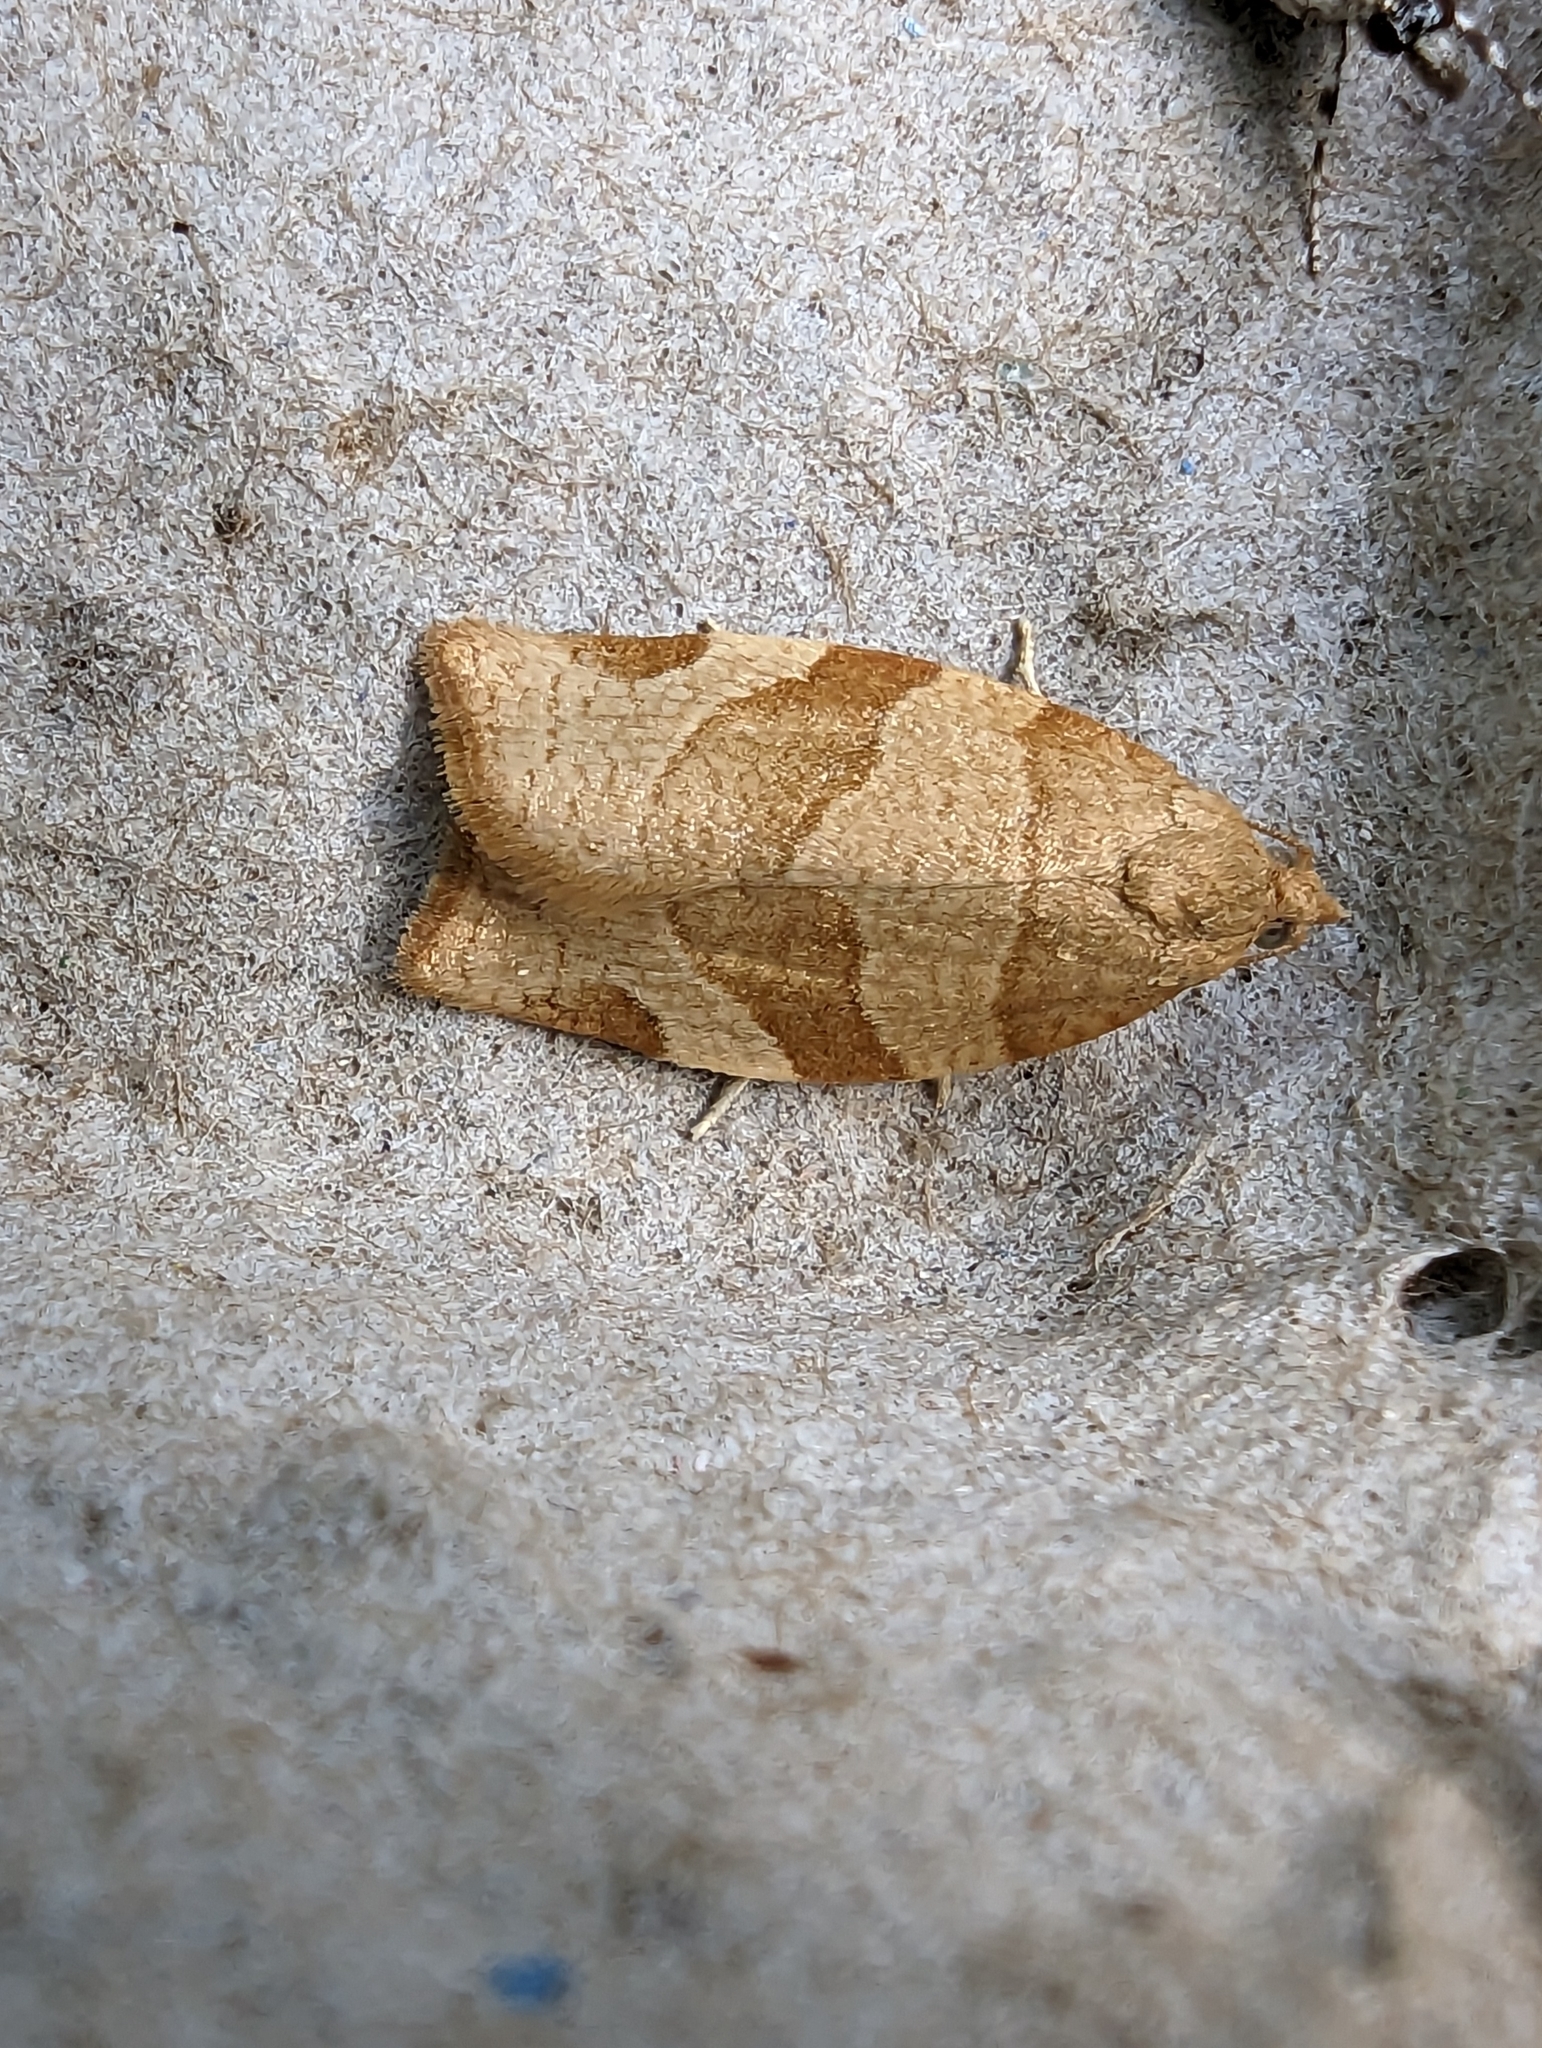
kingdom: Animalia
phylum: Arthropoda
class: Insecta
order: Lepidoptera
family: Tortricidae
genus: Pandemis
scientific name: Pandemis cerasana
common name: Barred fruit-tree tortrix
